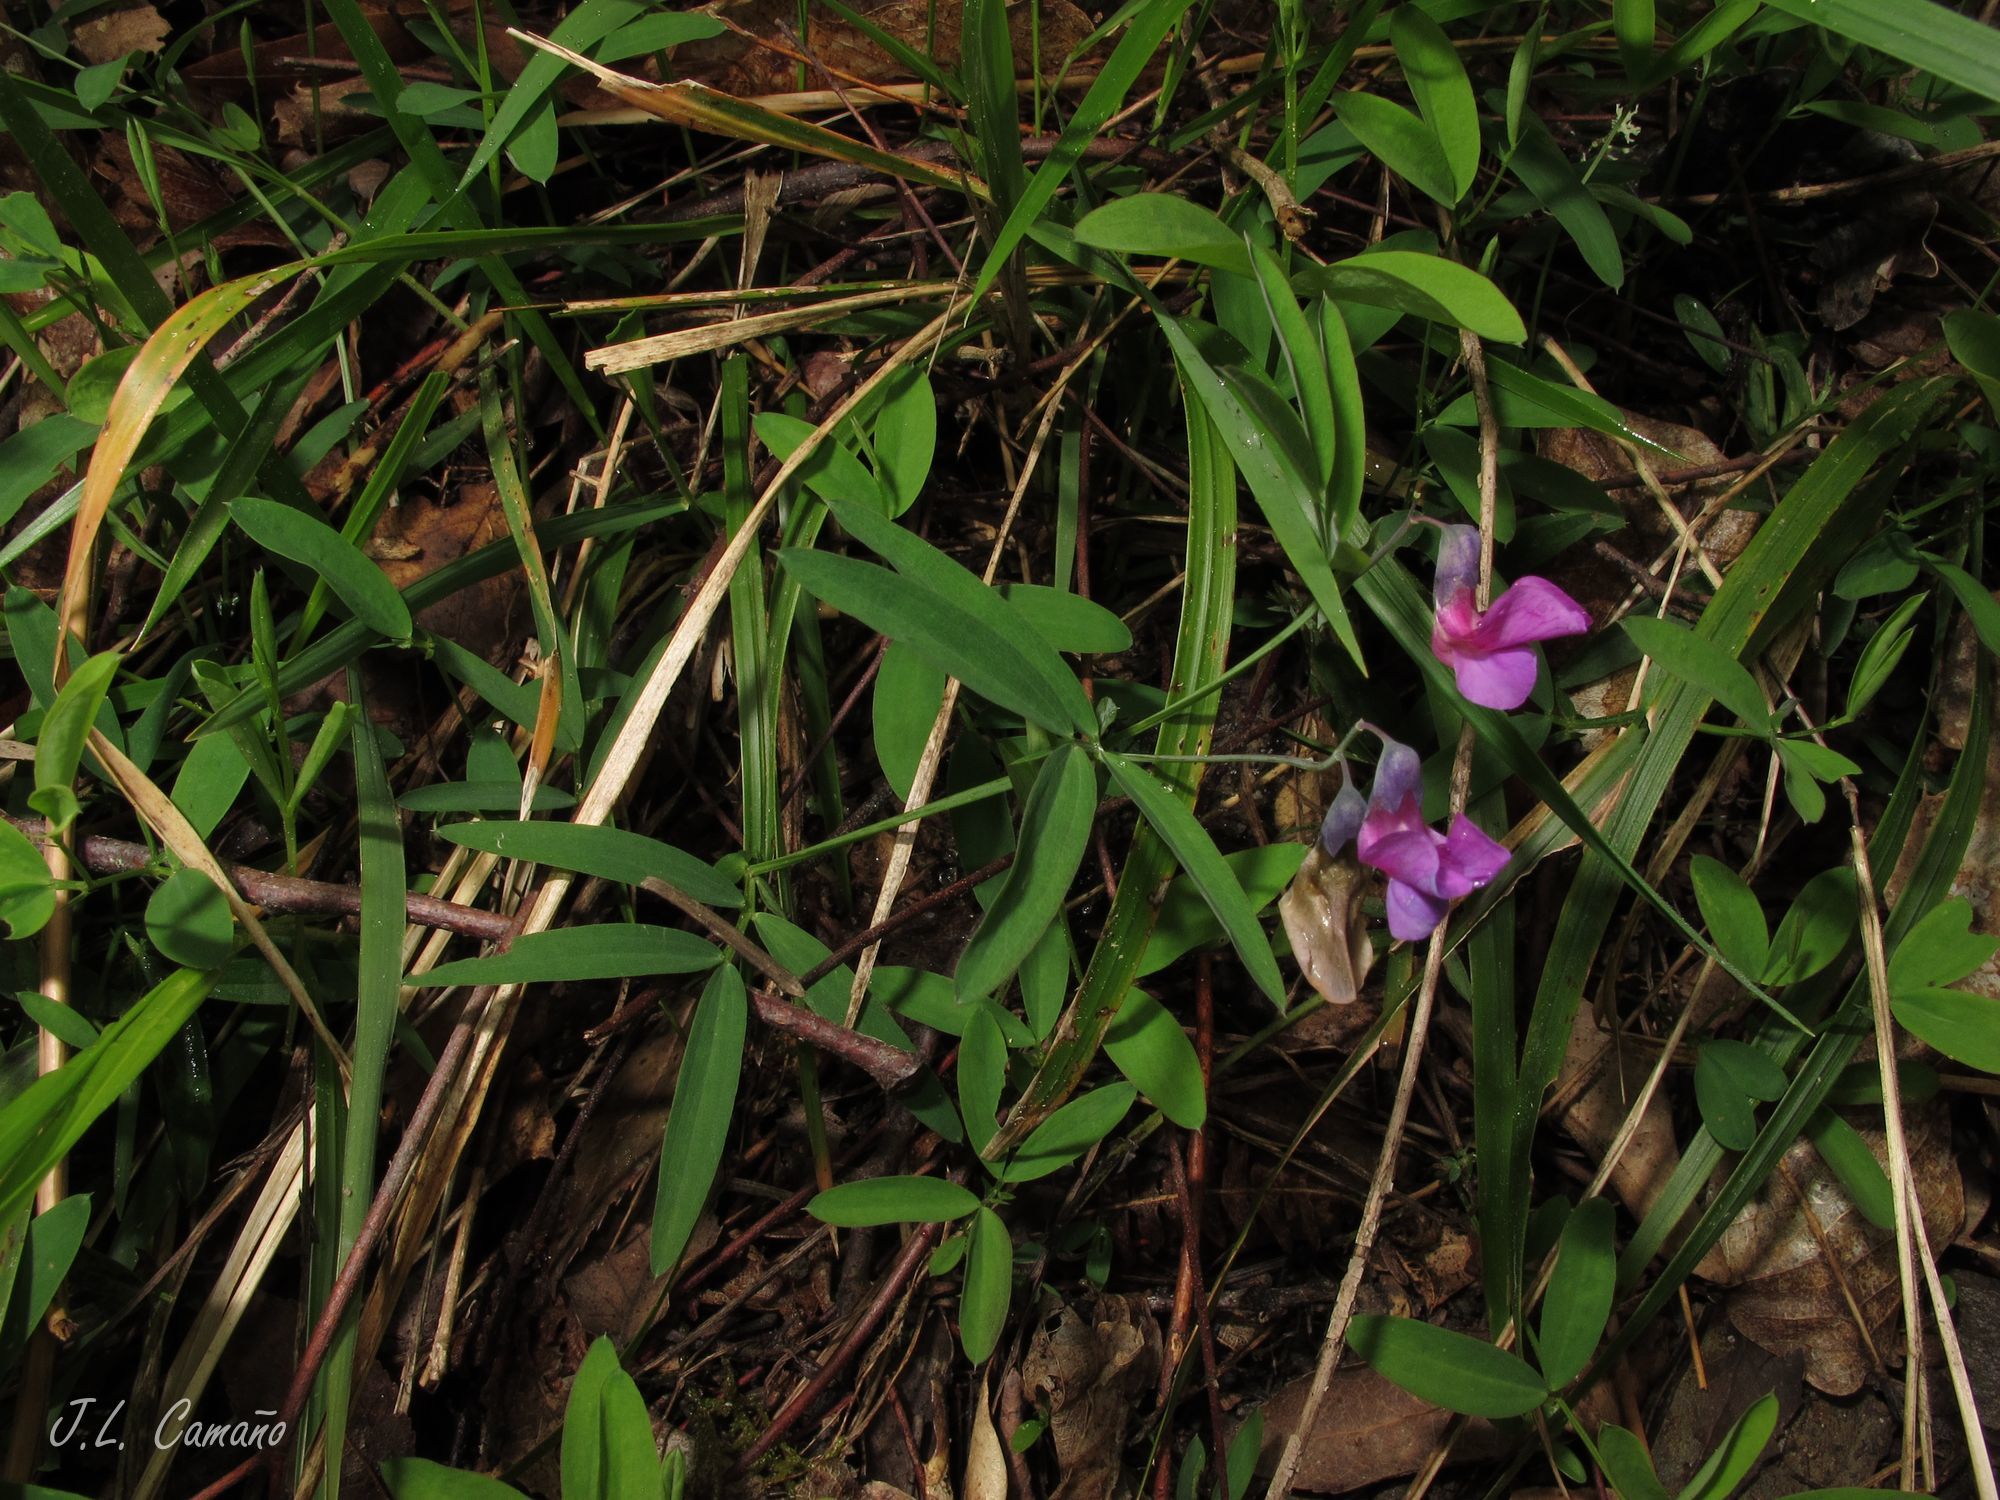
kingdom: Plantae
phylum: Tracheophyta
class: Magnoliopsida
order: Fabales
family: Fabaceae
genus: Lathyrus
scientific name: Lathyrus linifolius
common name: Bitter-vetch
